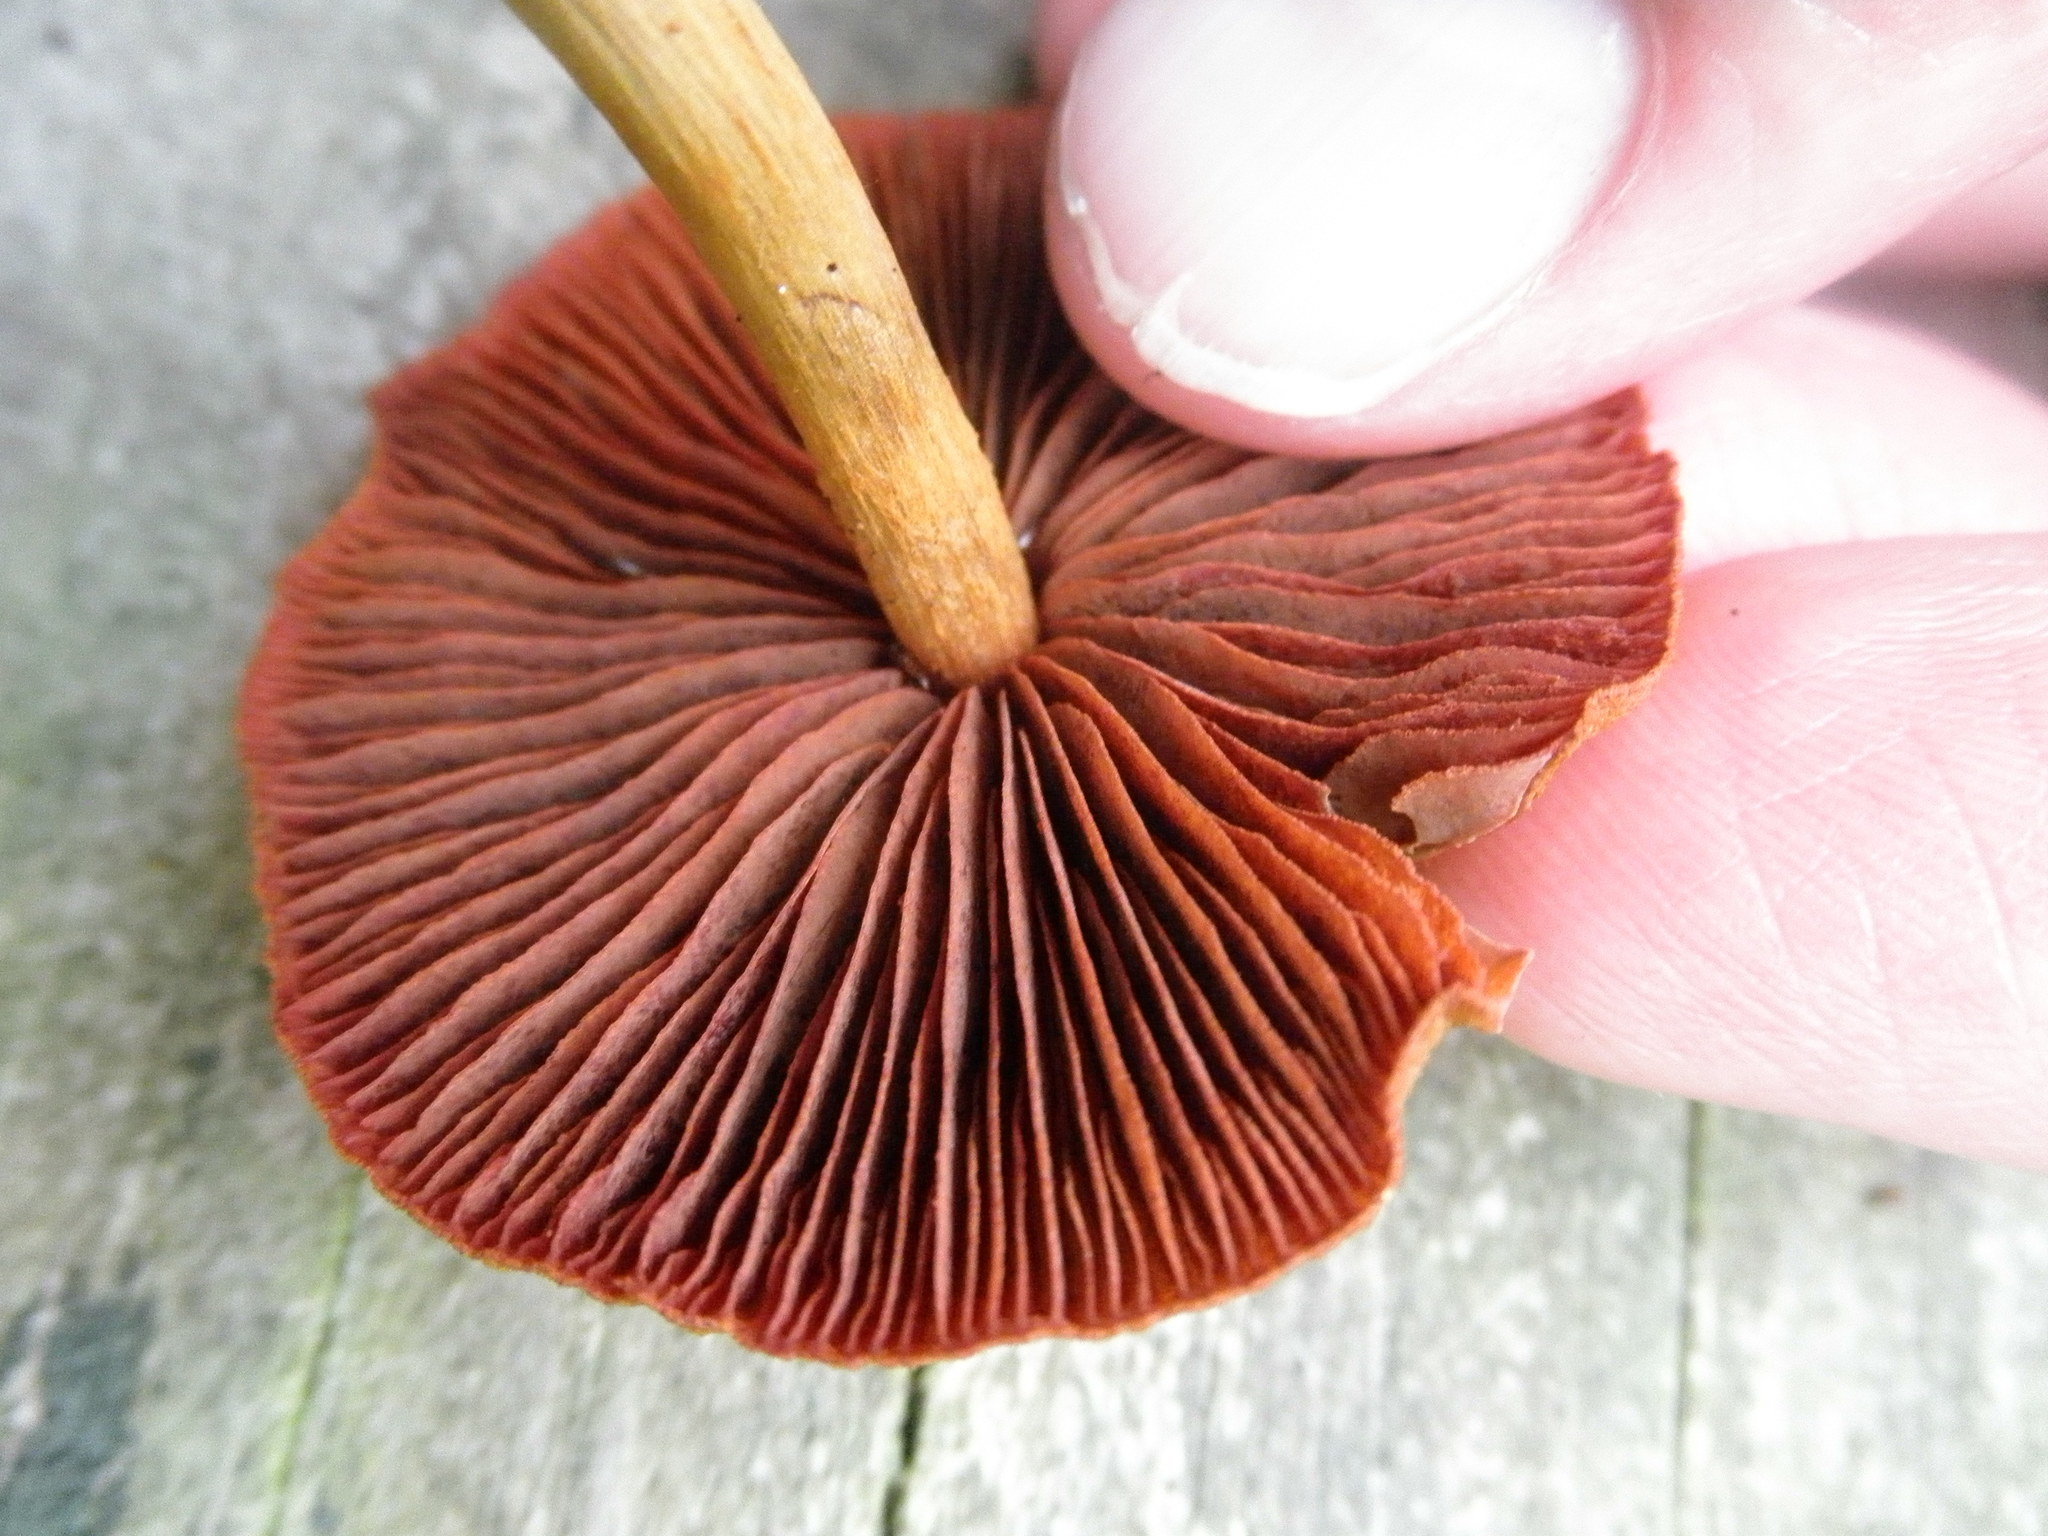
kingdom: Fungi
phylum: Basidiomycota
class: Agaricomycetes
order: Agaricales
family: Cortinariaceae
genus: Cortinarius
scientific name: Cortinarius semisanguineus
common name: Surprise webcap
